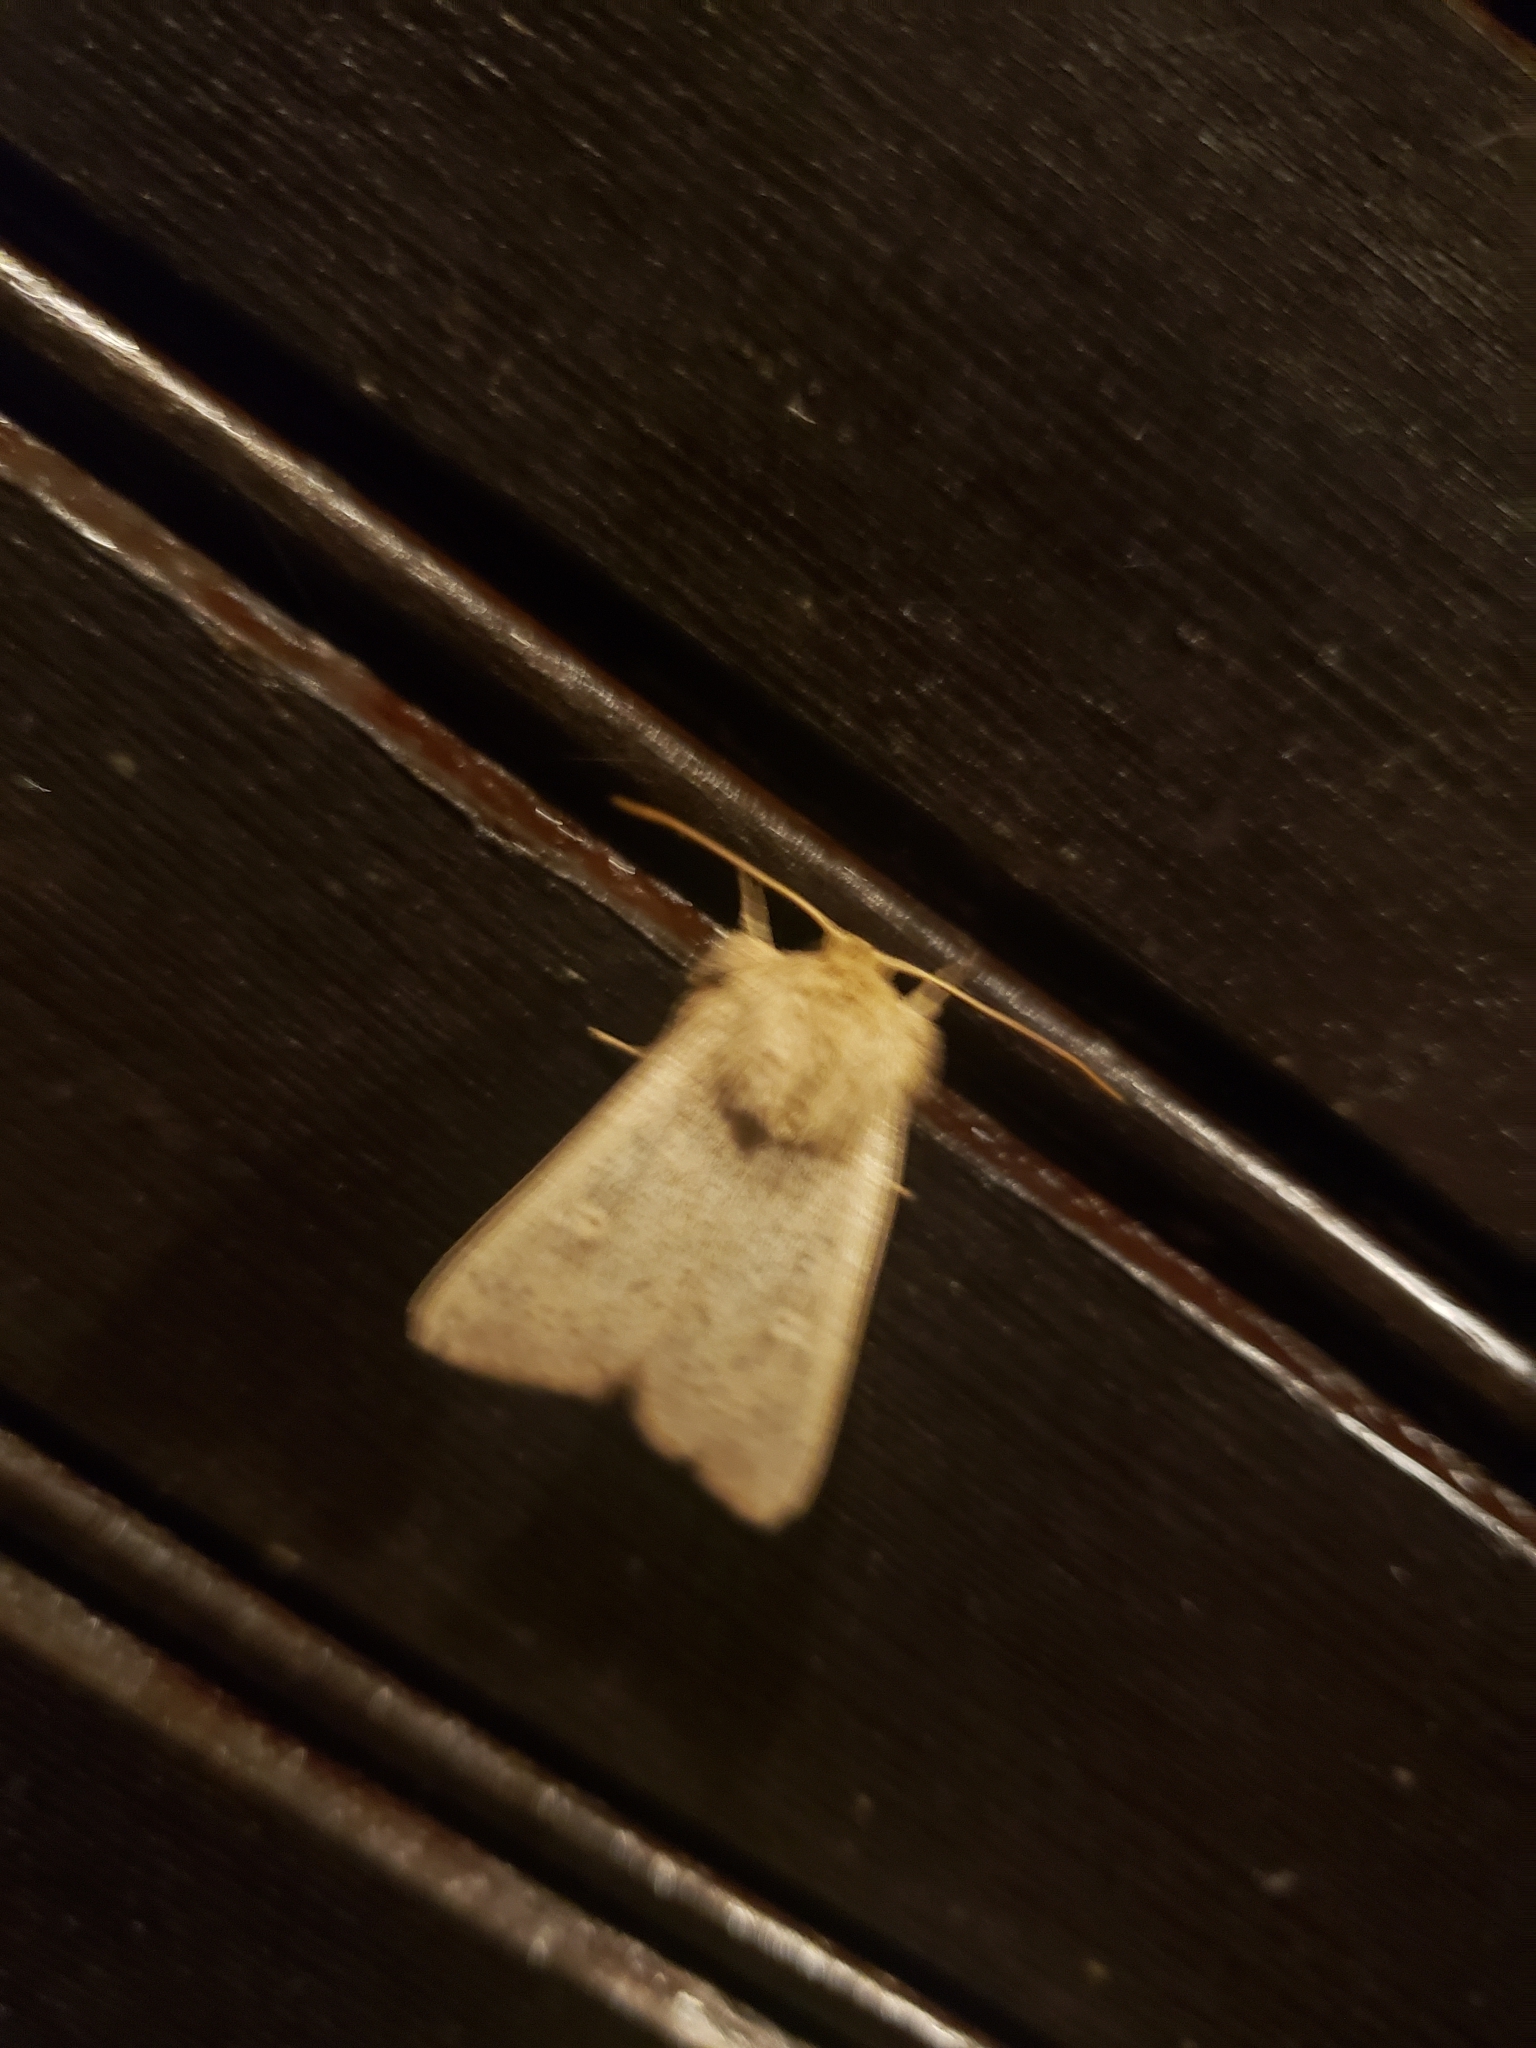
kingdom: Animalia
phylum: Arthropoda
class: Insecta
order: Lepidoptera
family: Noctuidae
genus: Leucania
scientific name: Leucania ursula
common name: Ursula wainscot
